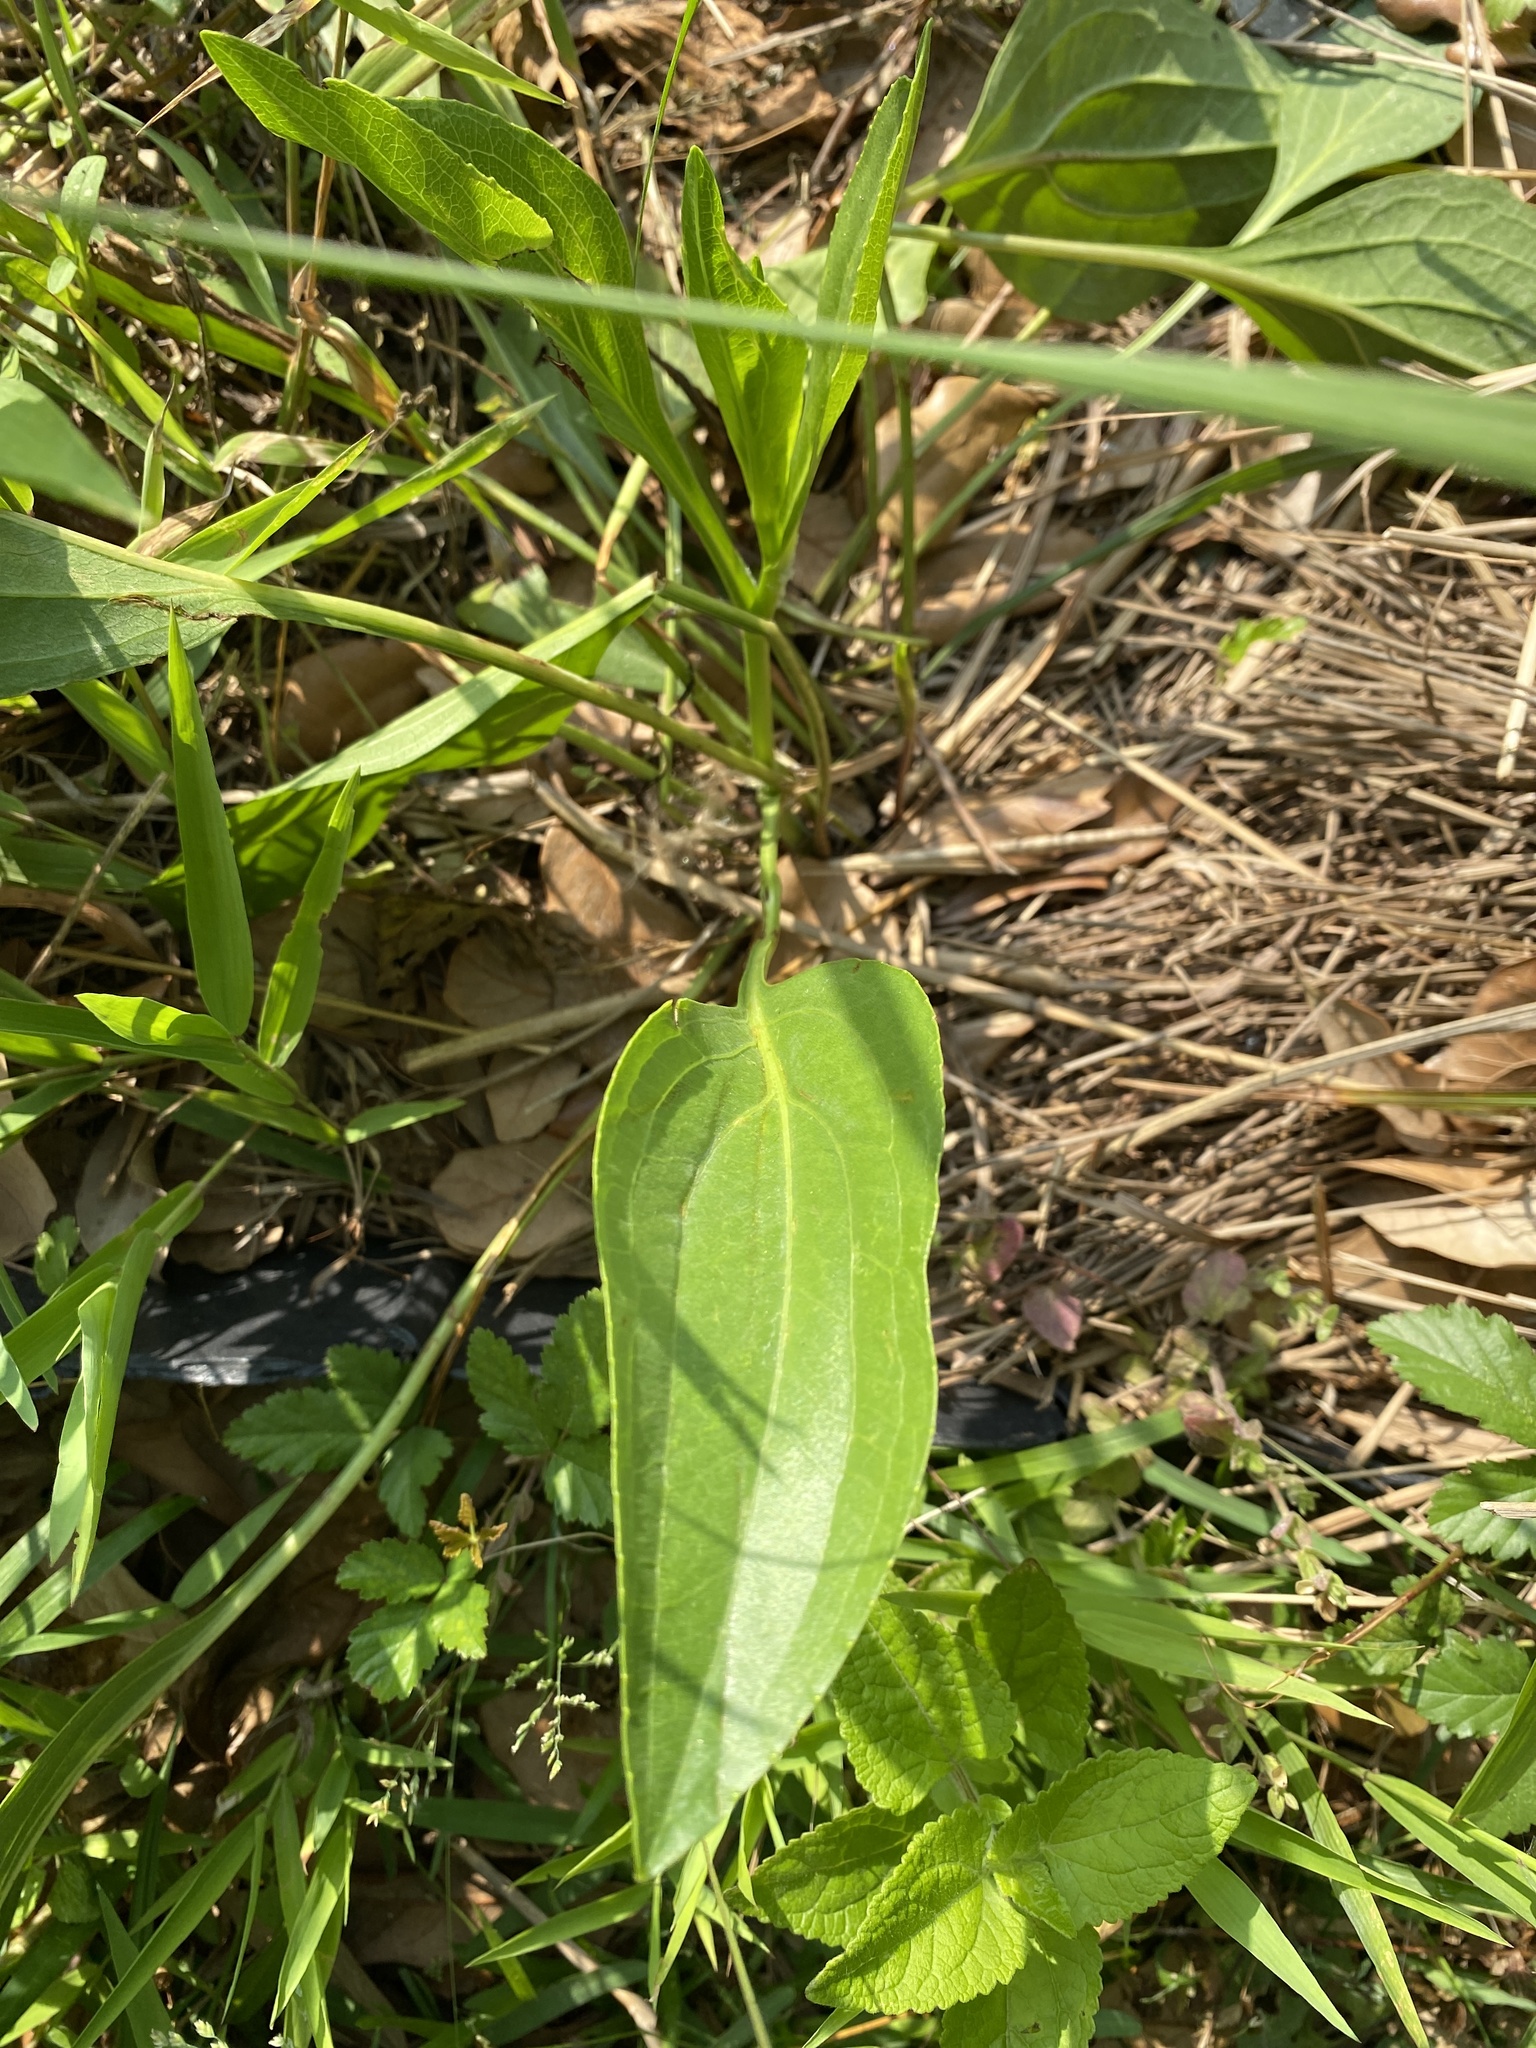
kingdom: Plantae
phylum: Tracheophyta
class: Magnoliopsida
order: Asterales
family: Asteraceae
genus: Rudbeckia
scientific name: Rudbeckia texana
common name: Texas coneflower
